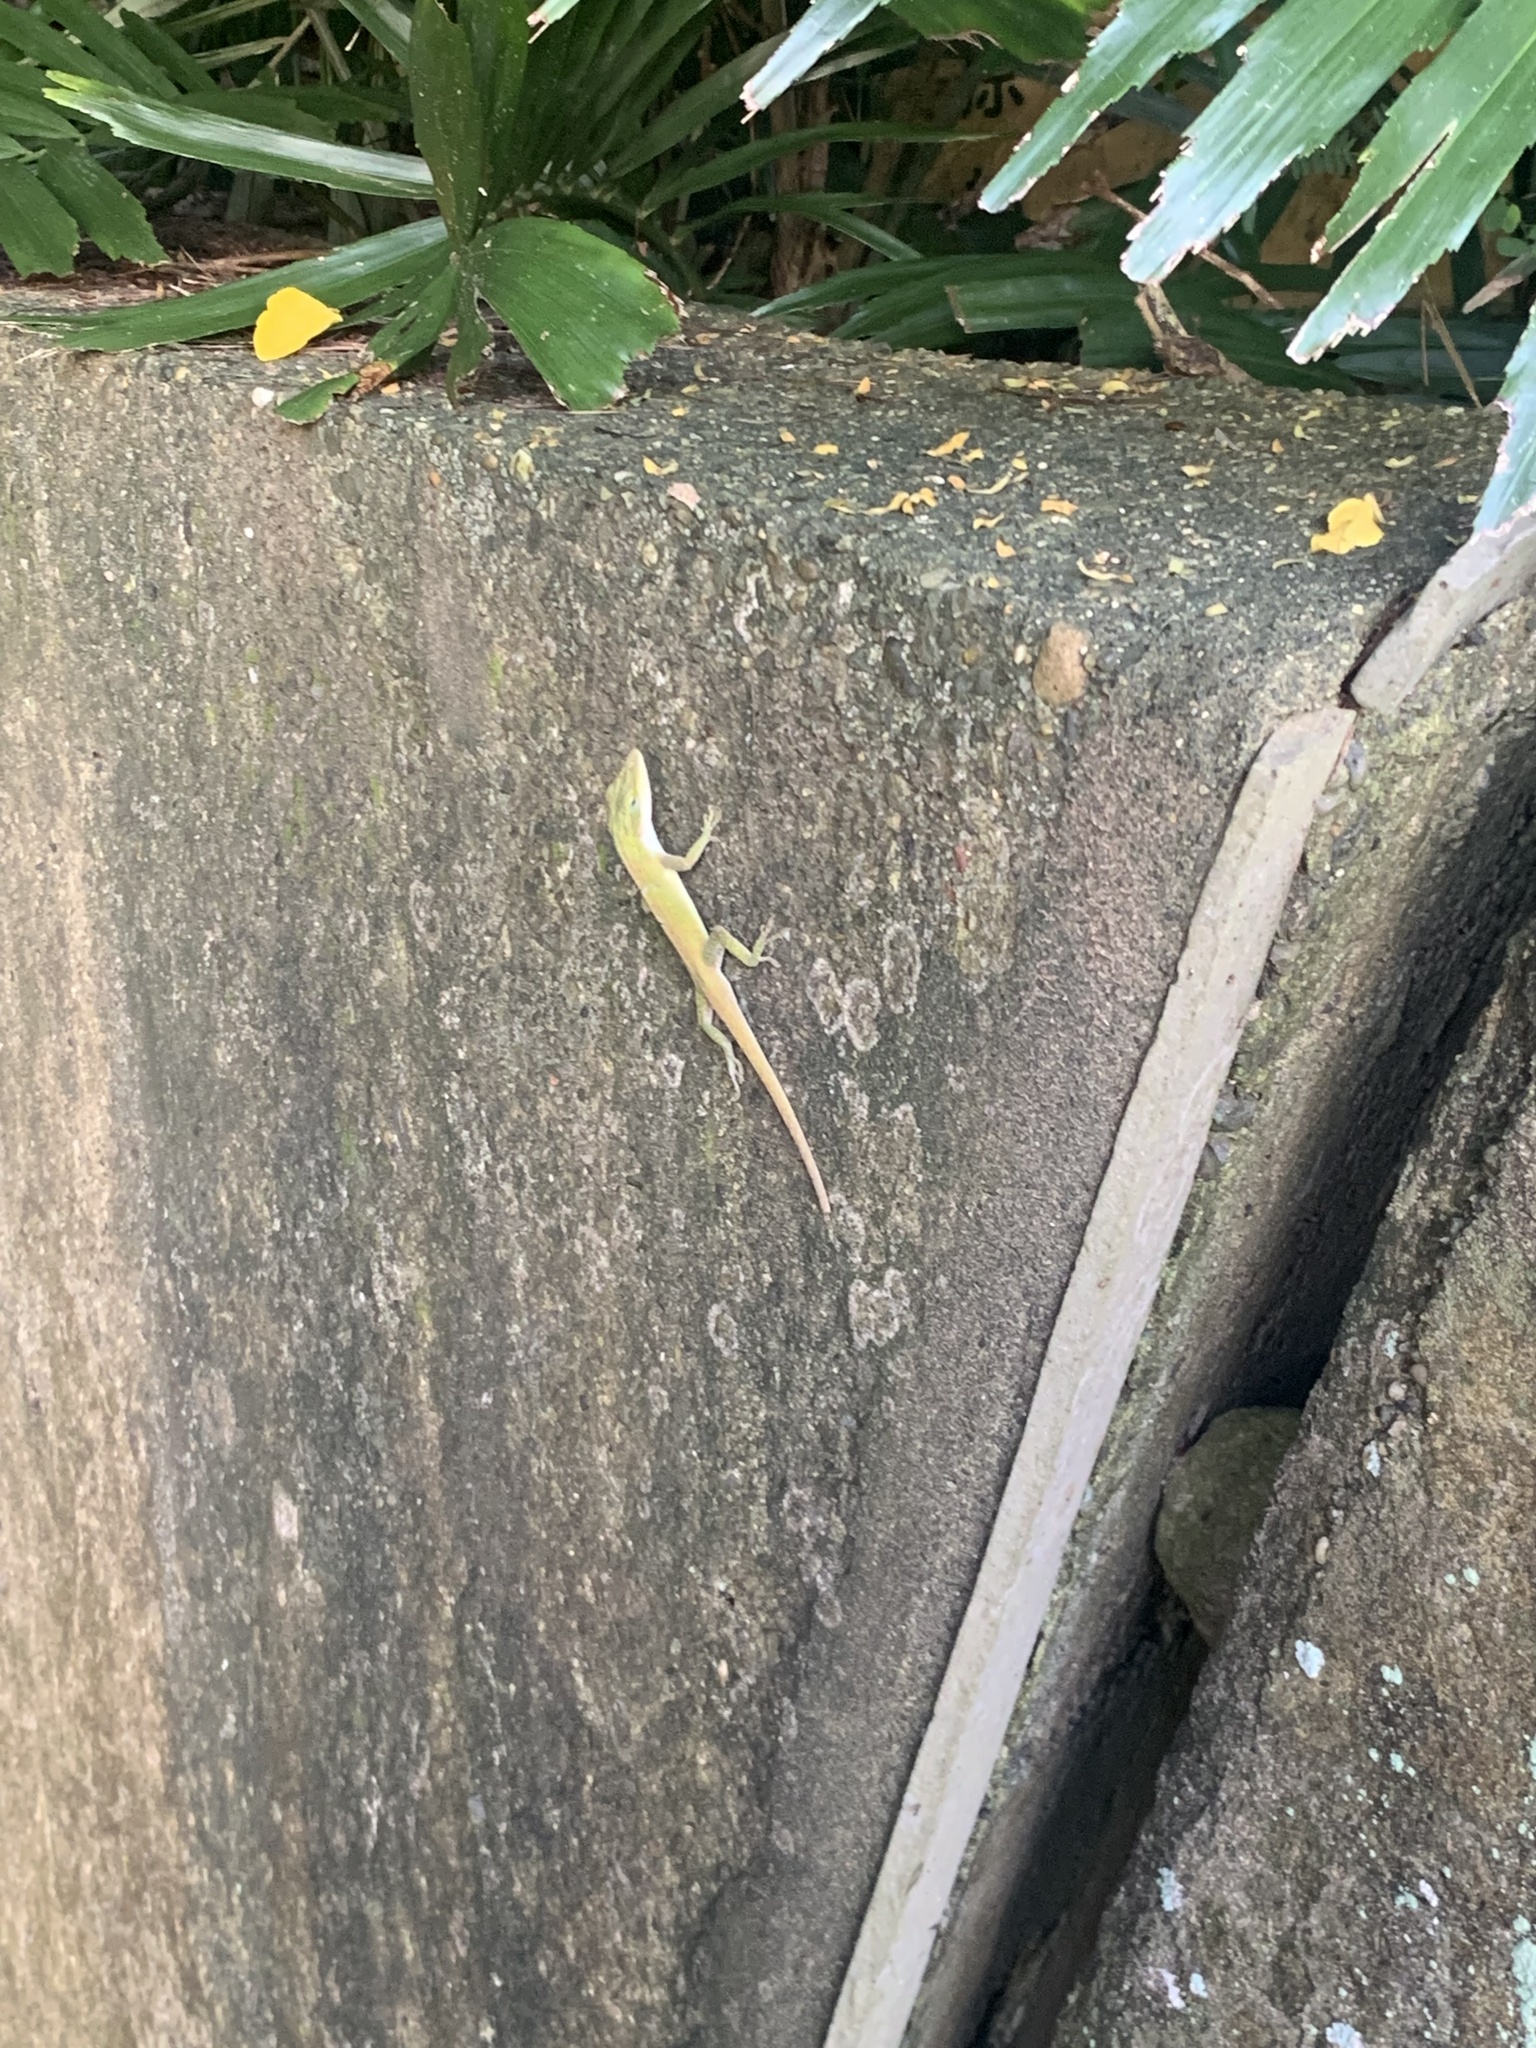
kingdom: Animalia
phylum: Chordata
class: Squamata
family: Dactyloidae
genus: Anolis
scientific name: Anolis carolinensis
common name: Green anole
